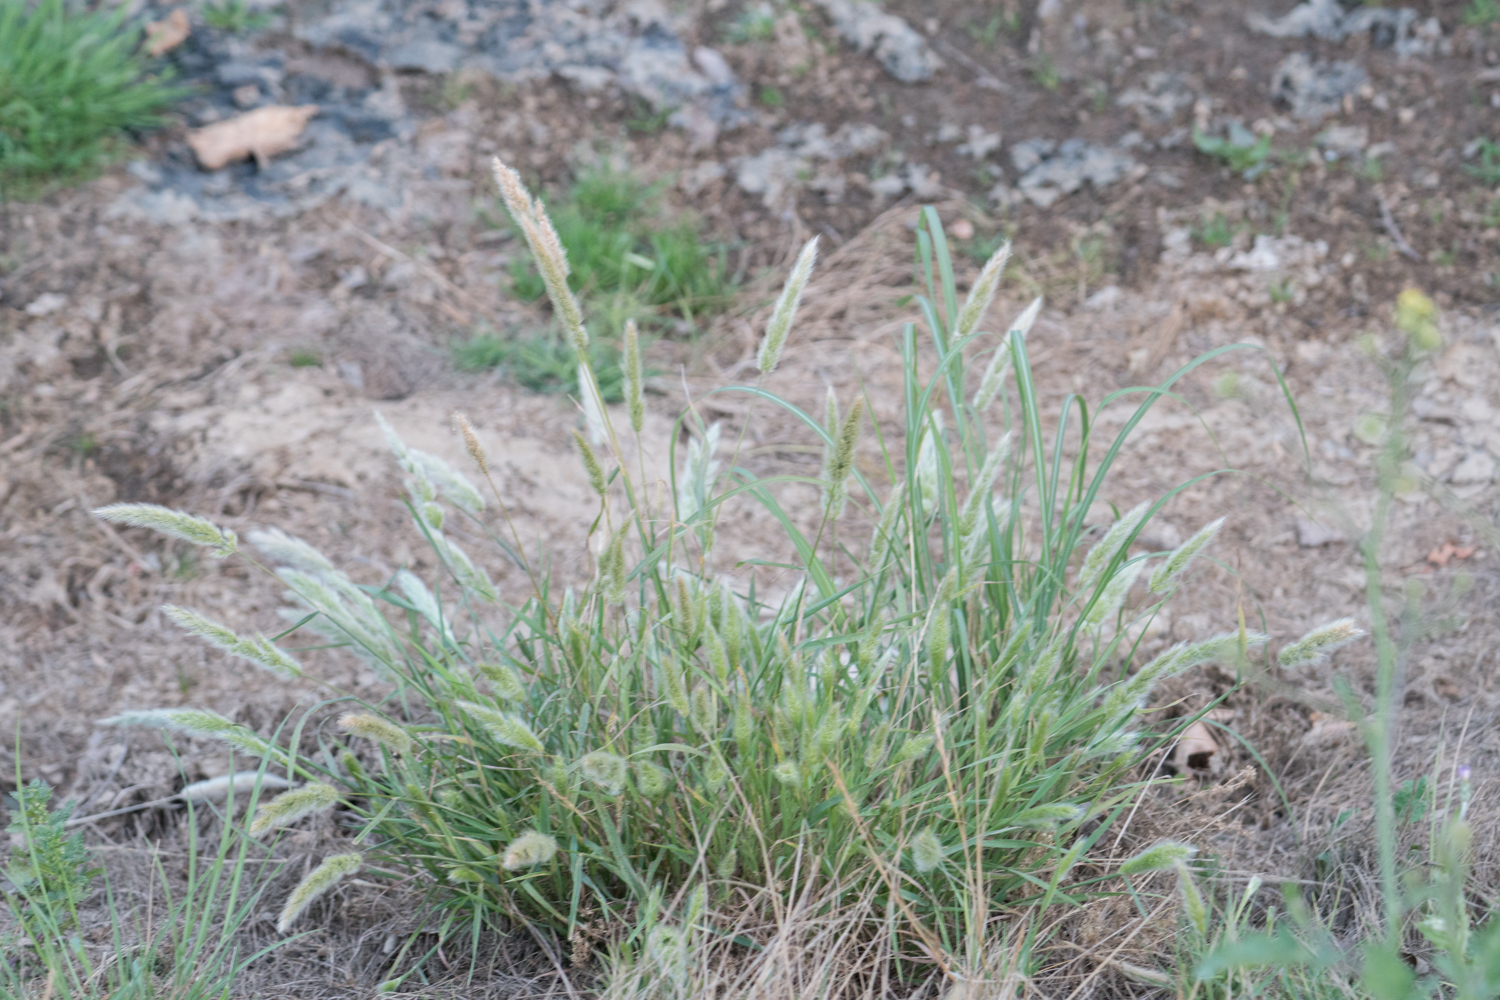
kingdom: Plantae
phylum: Tracheophyta
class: Liliopsida
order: Poales
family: Poaceae
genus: Polypogon
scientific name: Polypogon monspeliensis
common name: Annual rabbitsfoot grass
